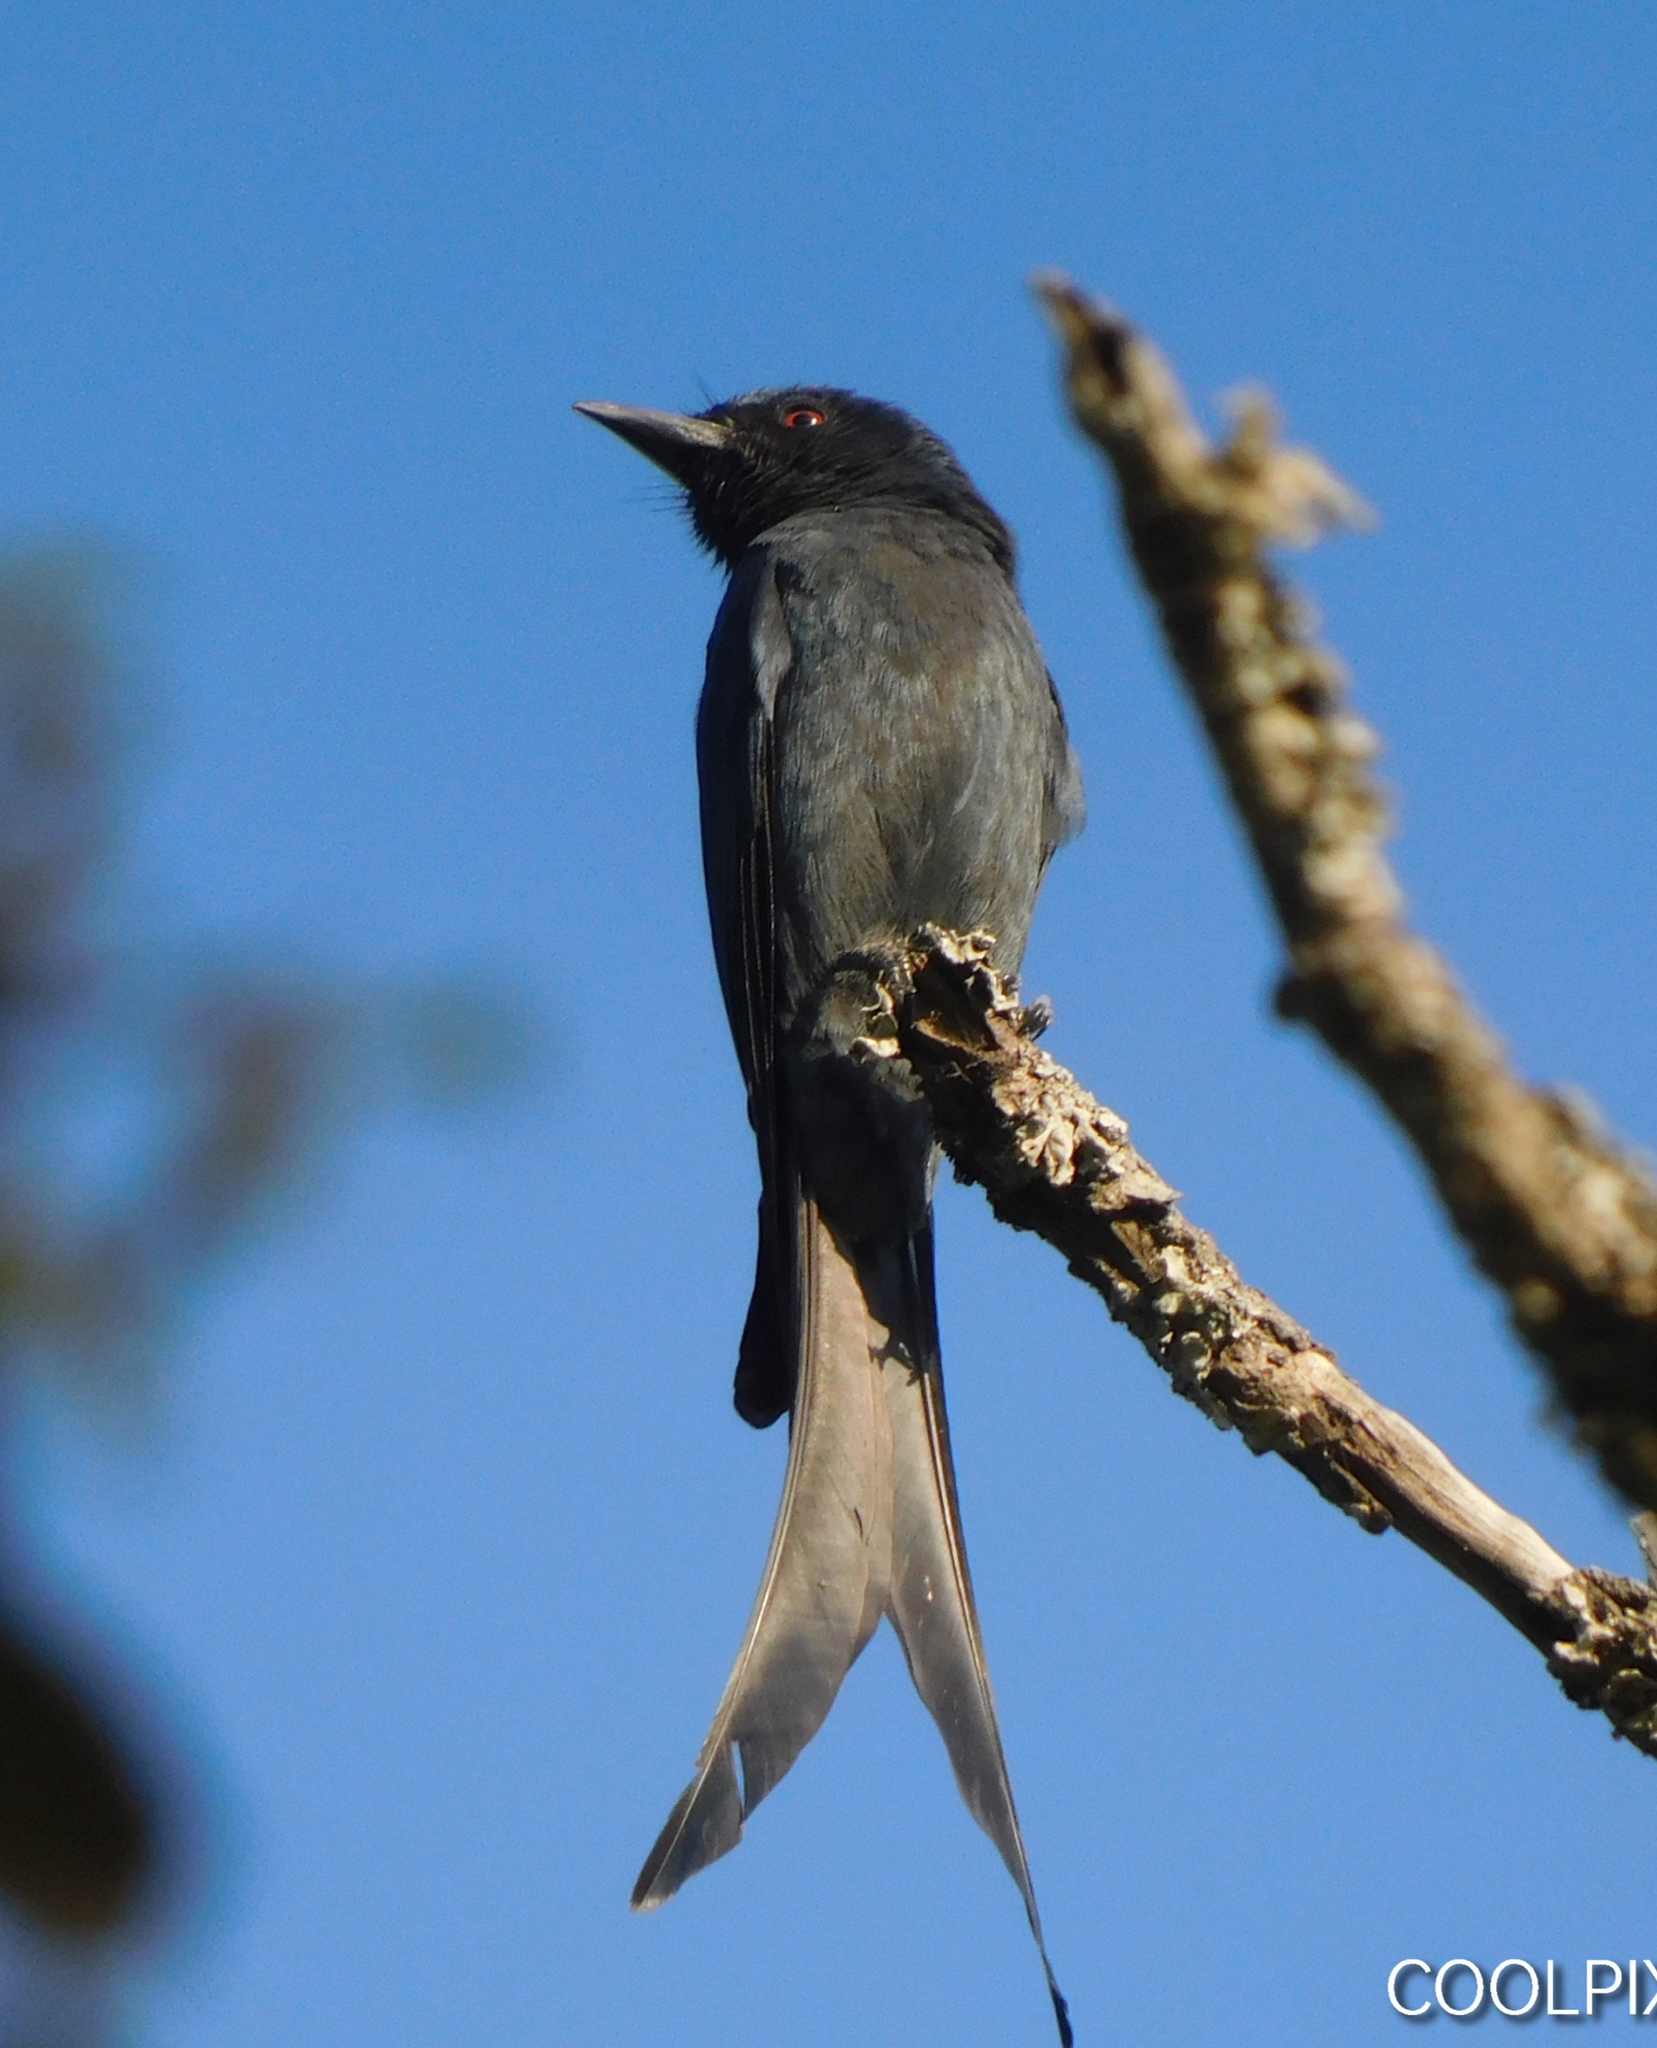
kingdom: Animalia
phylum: Chordata
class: Aves
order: Passeriformes
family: Dicruridae
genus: Dicrurus
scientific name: Dicrurus leucophaeus
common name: Ashy drongo
